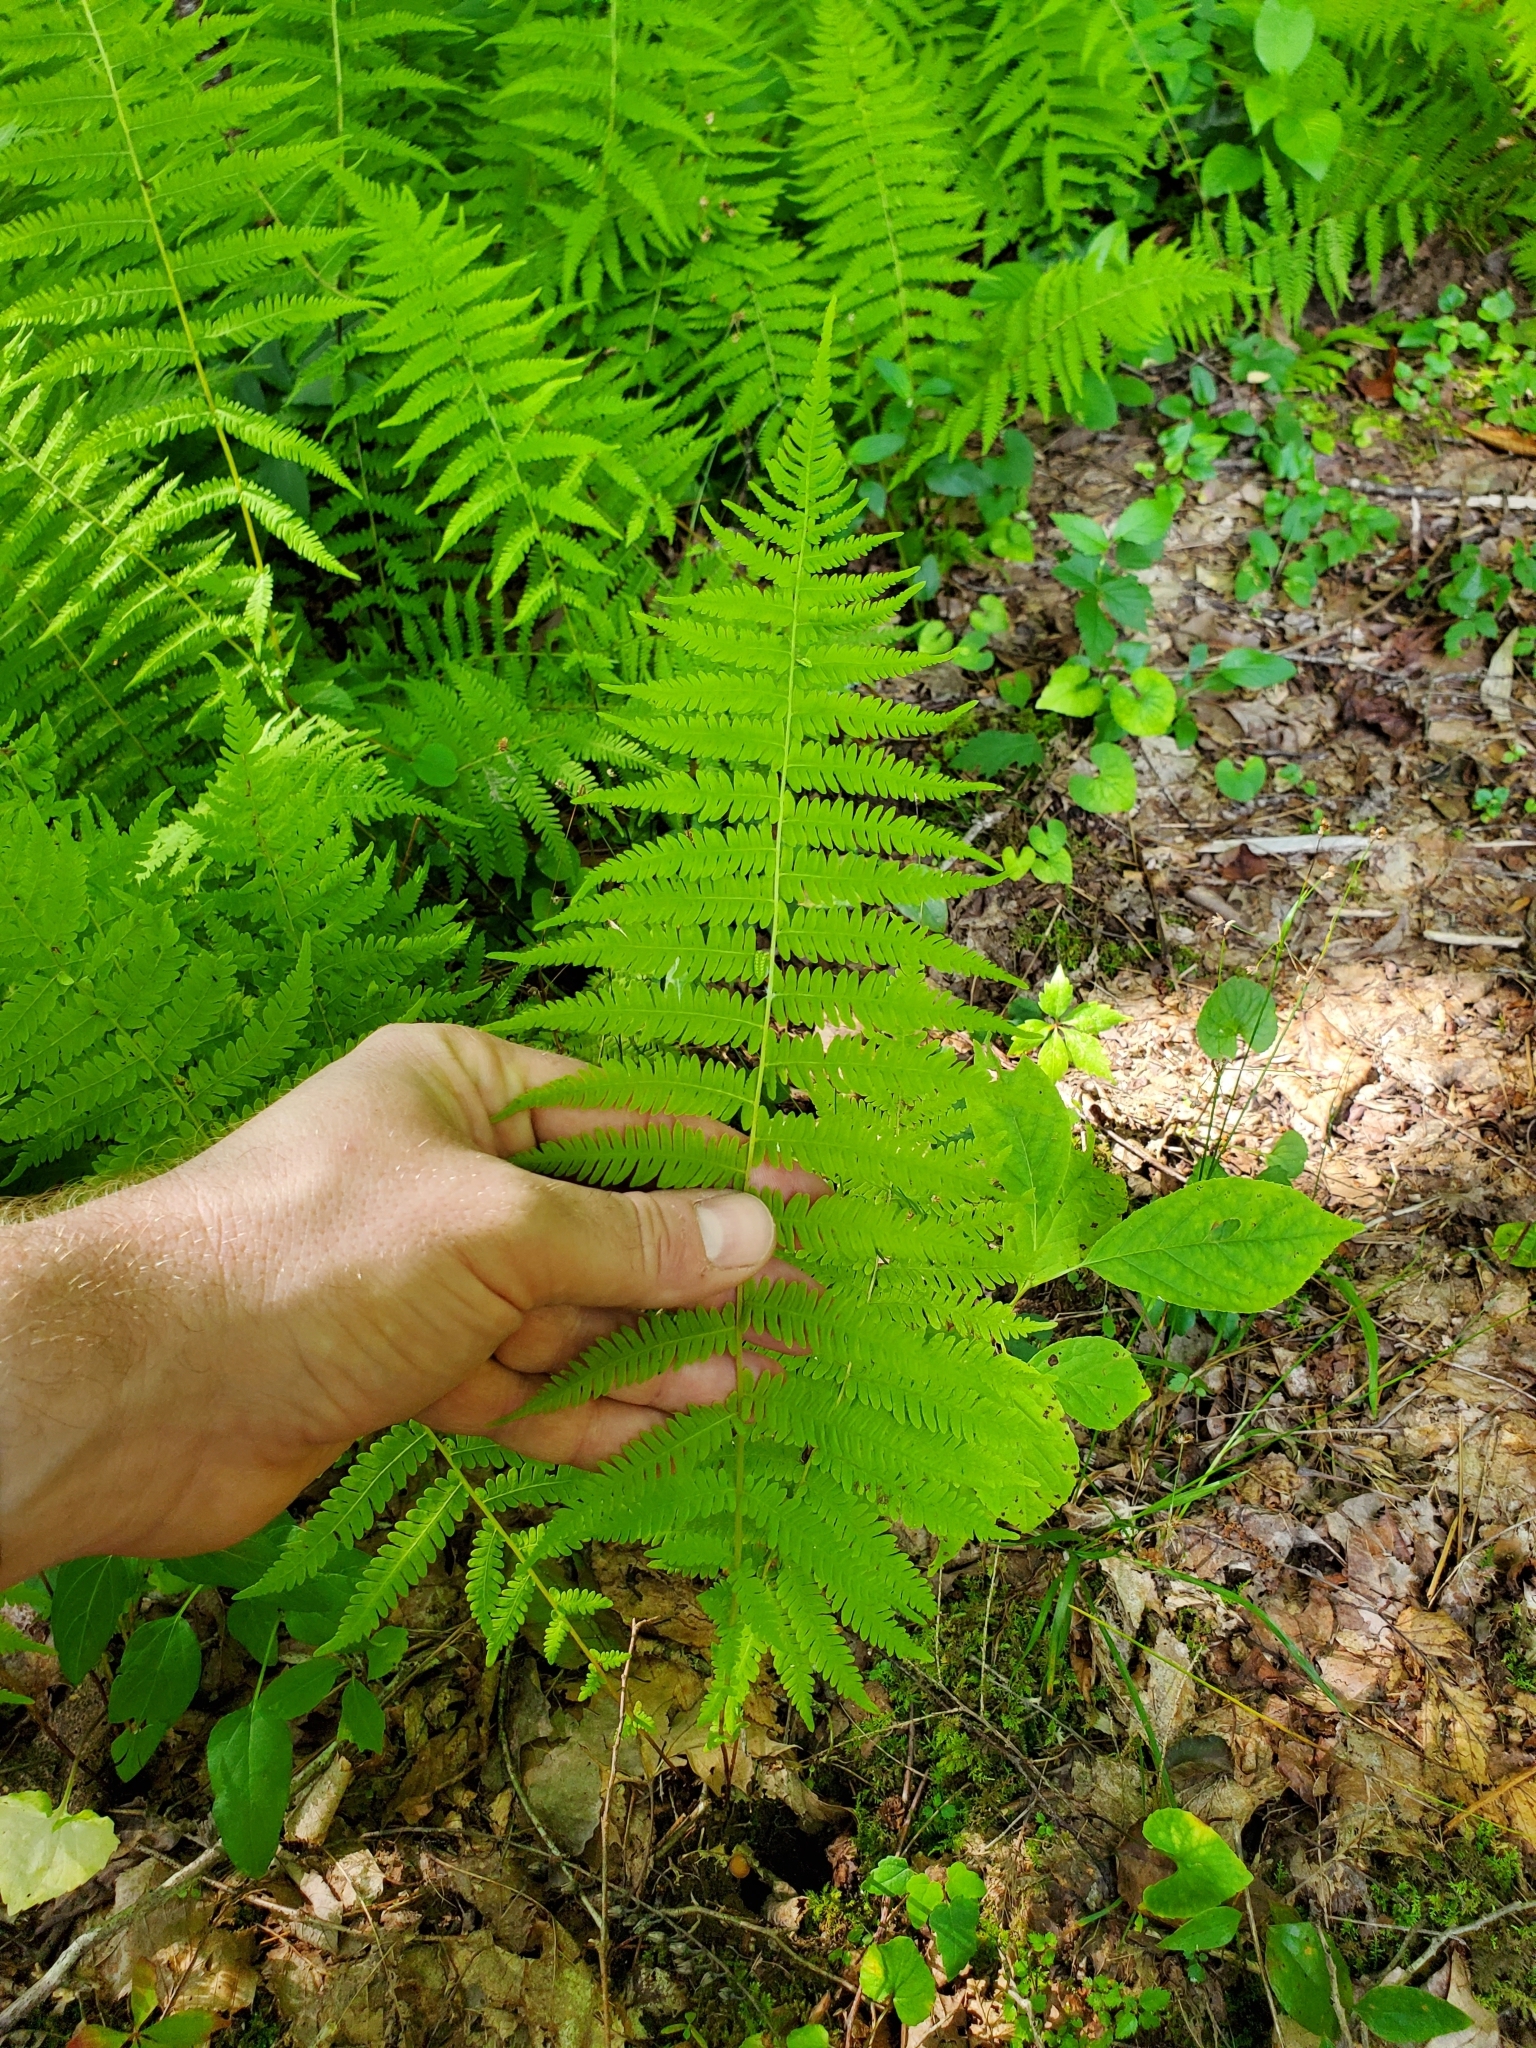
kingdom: Plantae
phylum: Tracheophyta
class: Polypodiopsida
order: Polypodiales
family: Thelypteridaceae
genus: Amauropelta
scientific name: Amauropelta noveboracensis
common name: New york fern
